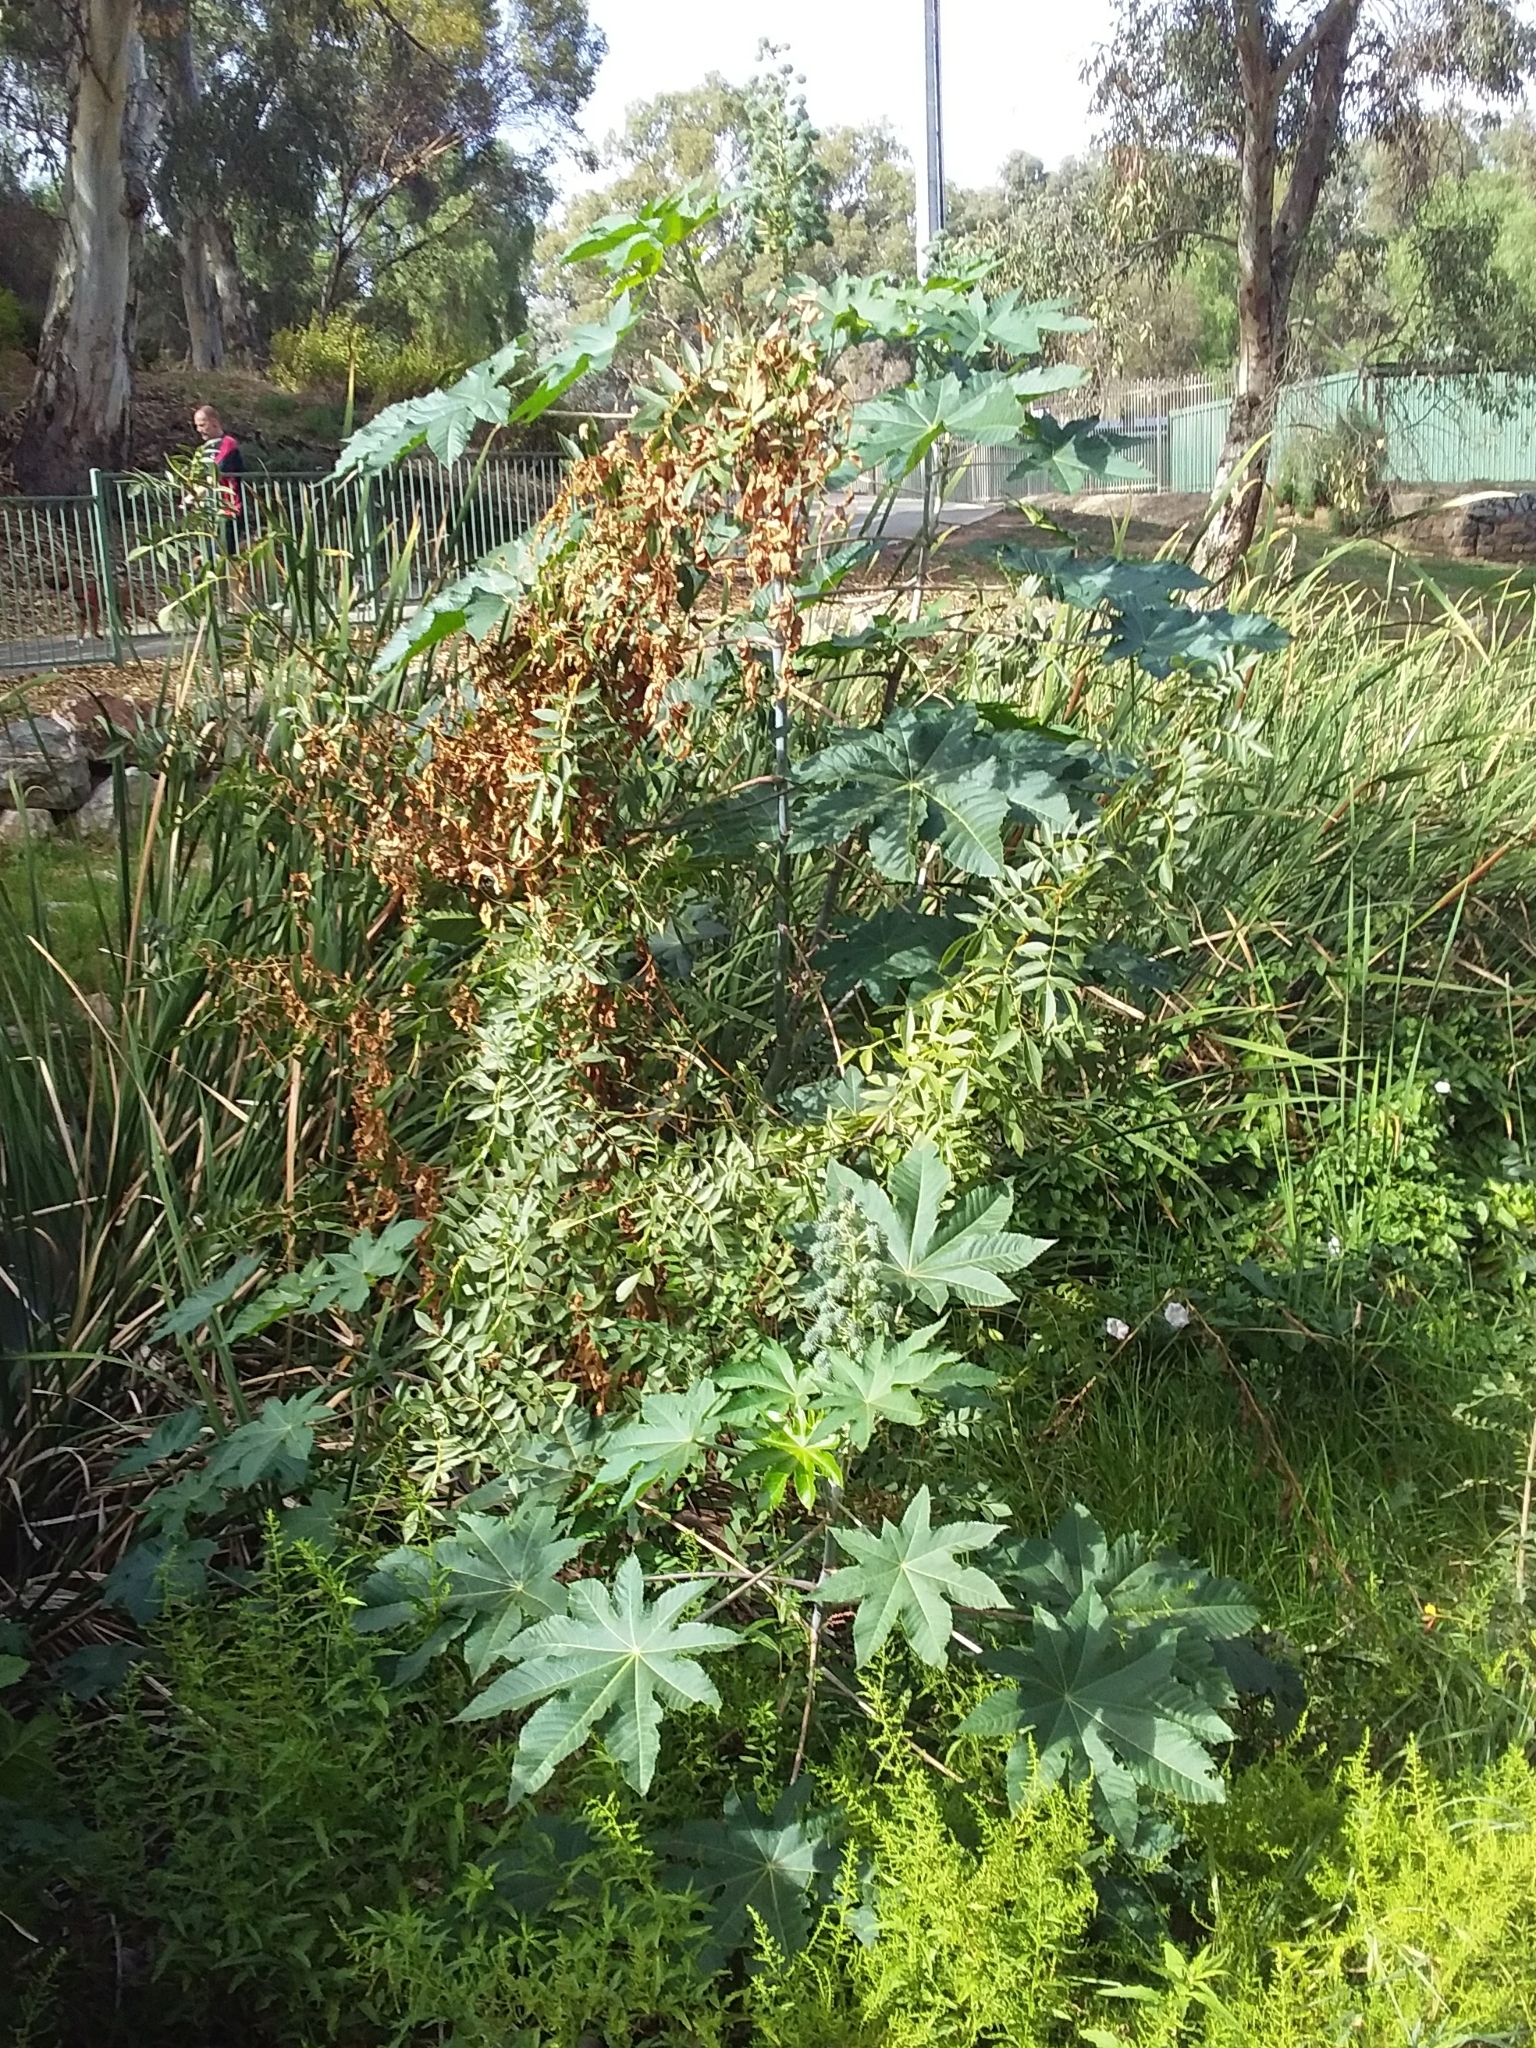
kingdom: Plantae
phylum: Tracheophyta
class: Magnoliopsida
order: Malpighiales
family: Euphorbiaceae
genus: Ricinus
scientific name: Ricinus communis
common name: Castor-oil-plant
